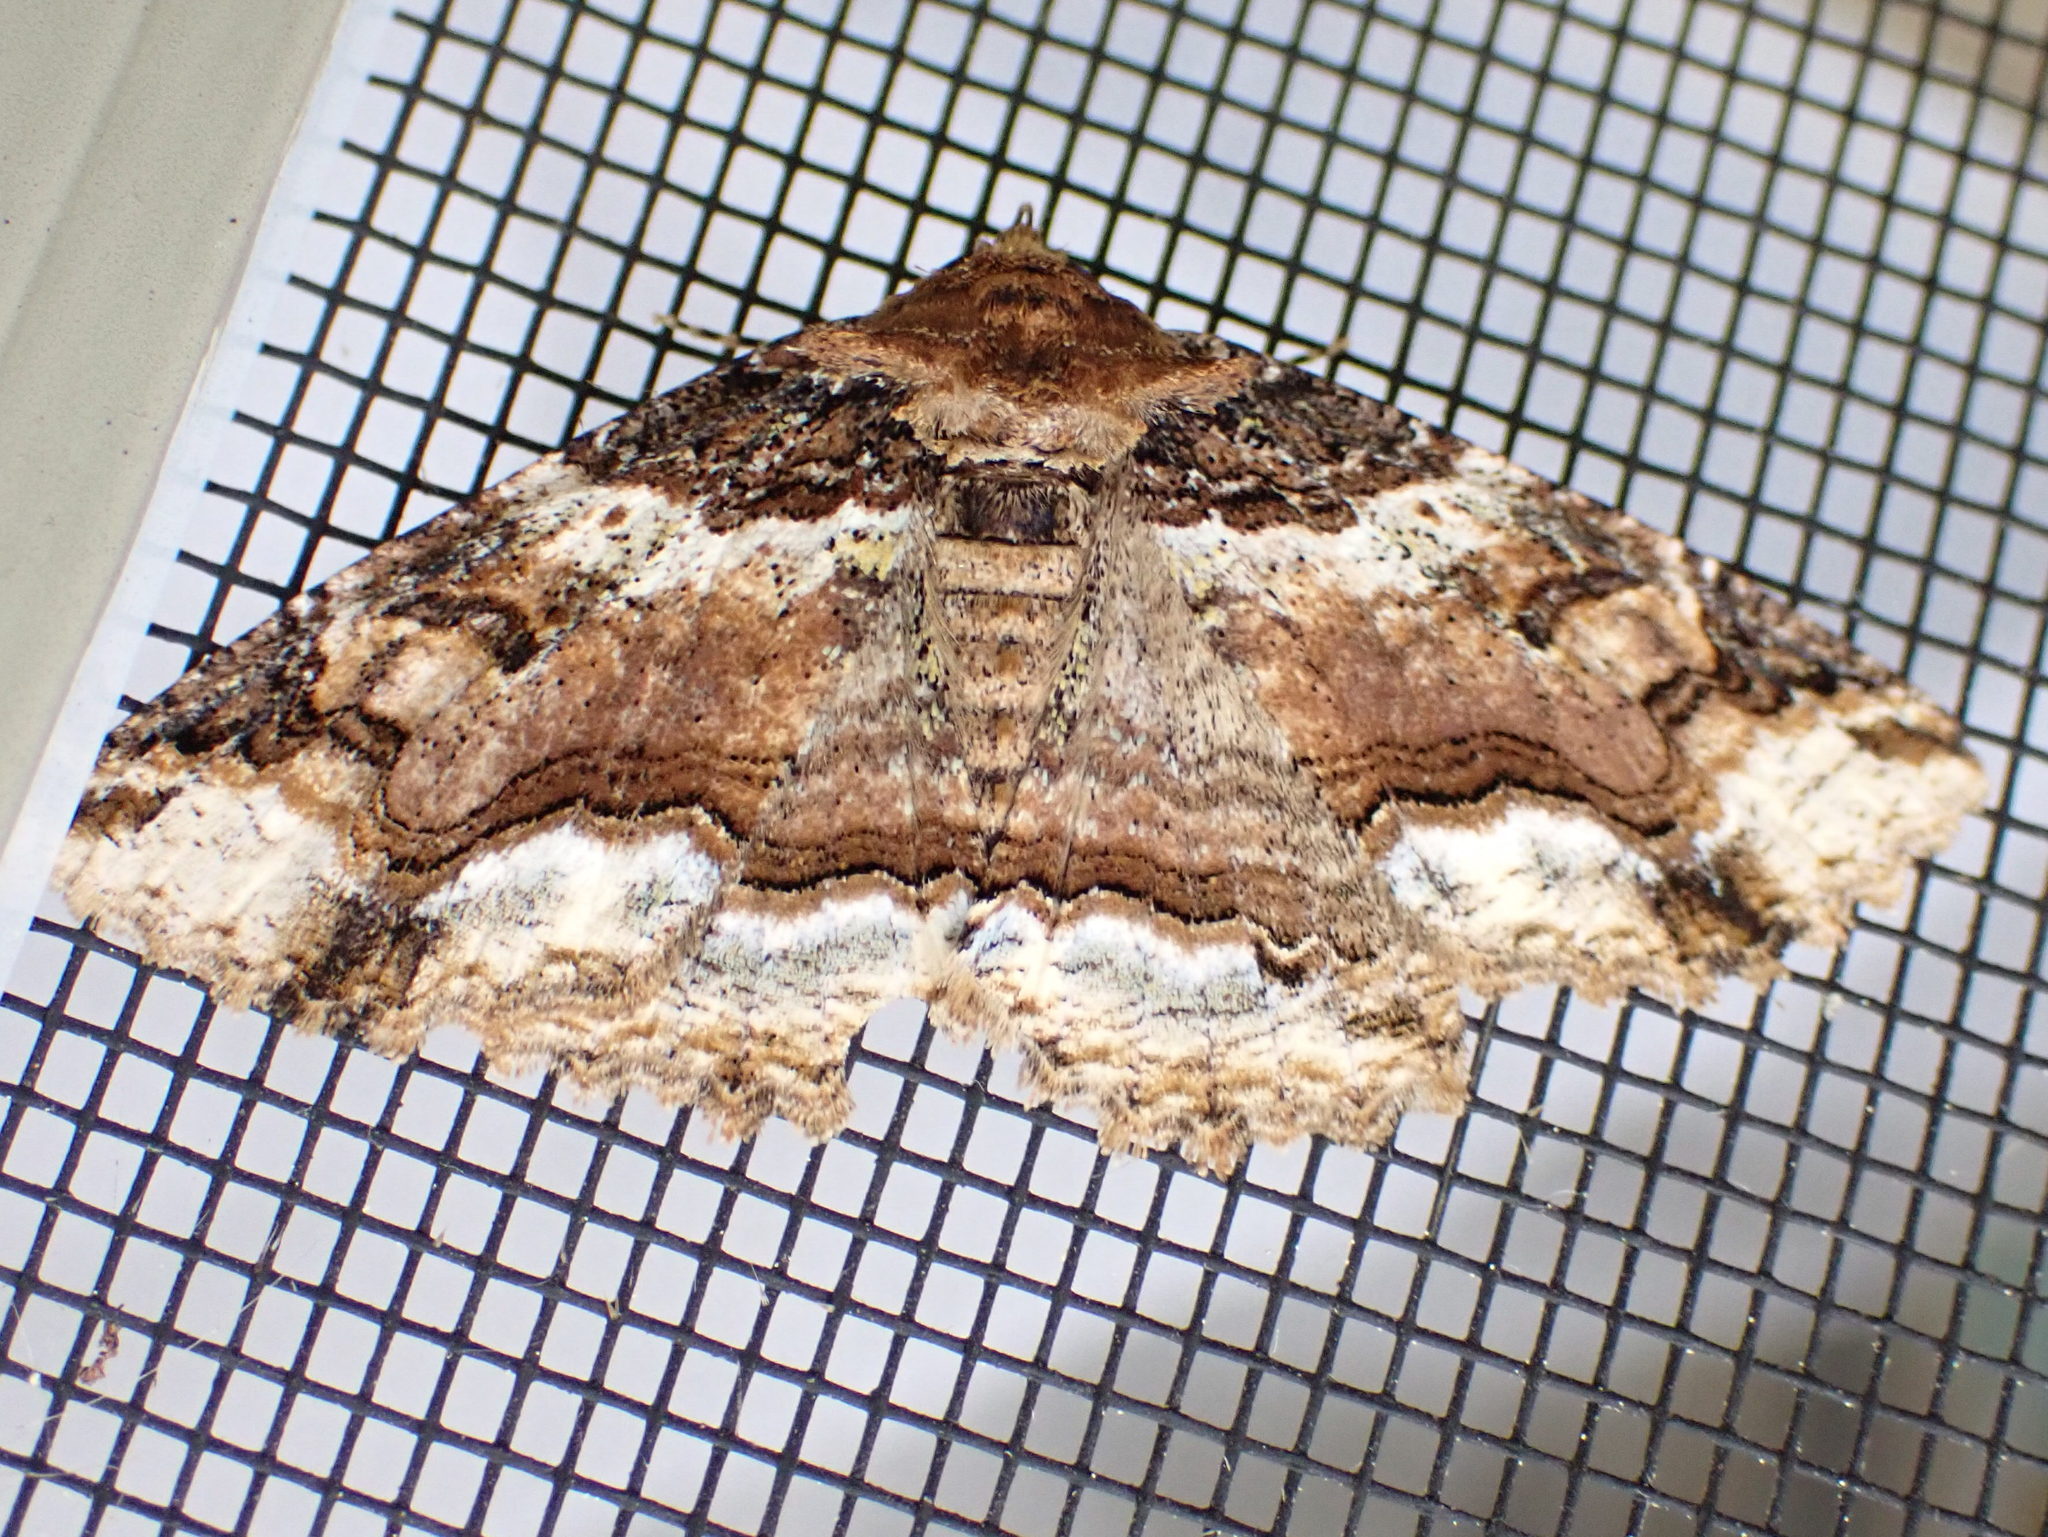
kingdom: Animalia
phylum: Arthropoda
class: Insecta
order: Lepidoptera
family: Erebidae
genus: Zale
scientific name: Zale minerea
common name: Colorful zale moth
